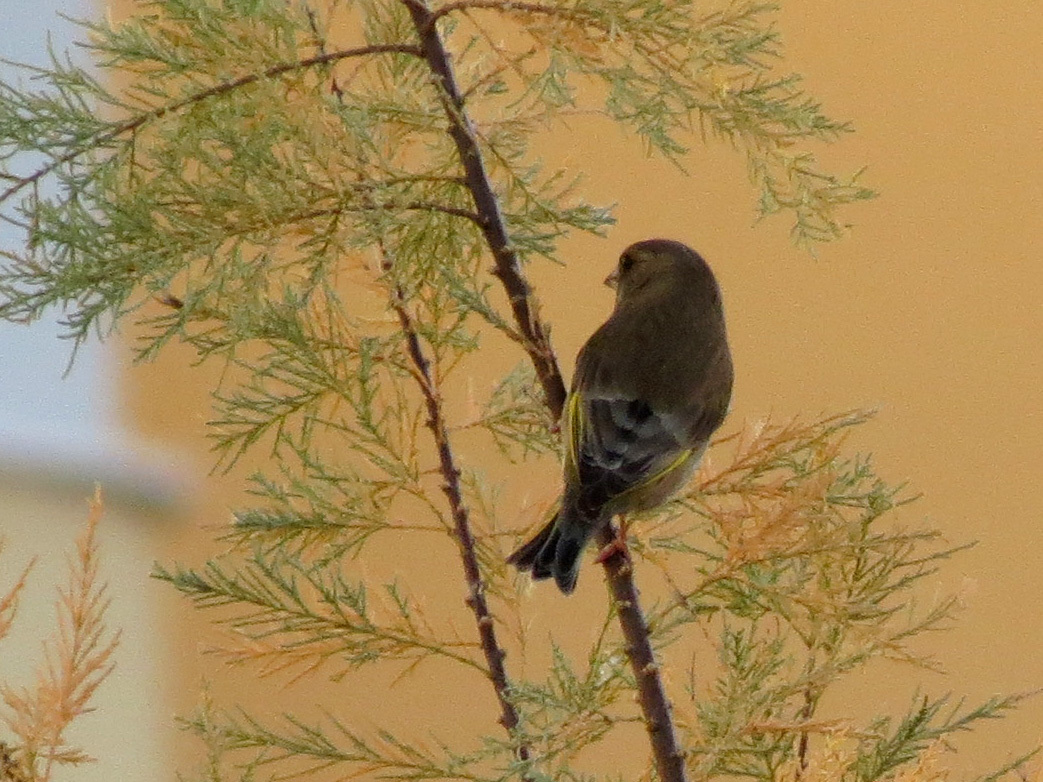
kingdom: Plantae
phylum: Tracheophyta
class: Liliopsida
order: Poales
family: Poaceae
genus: Chloris
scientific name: Chloris chloris
